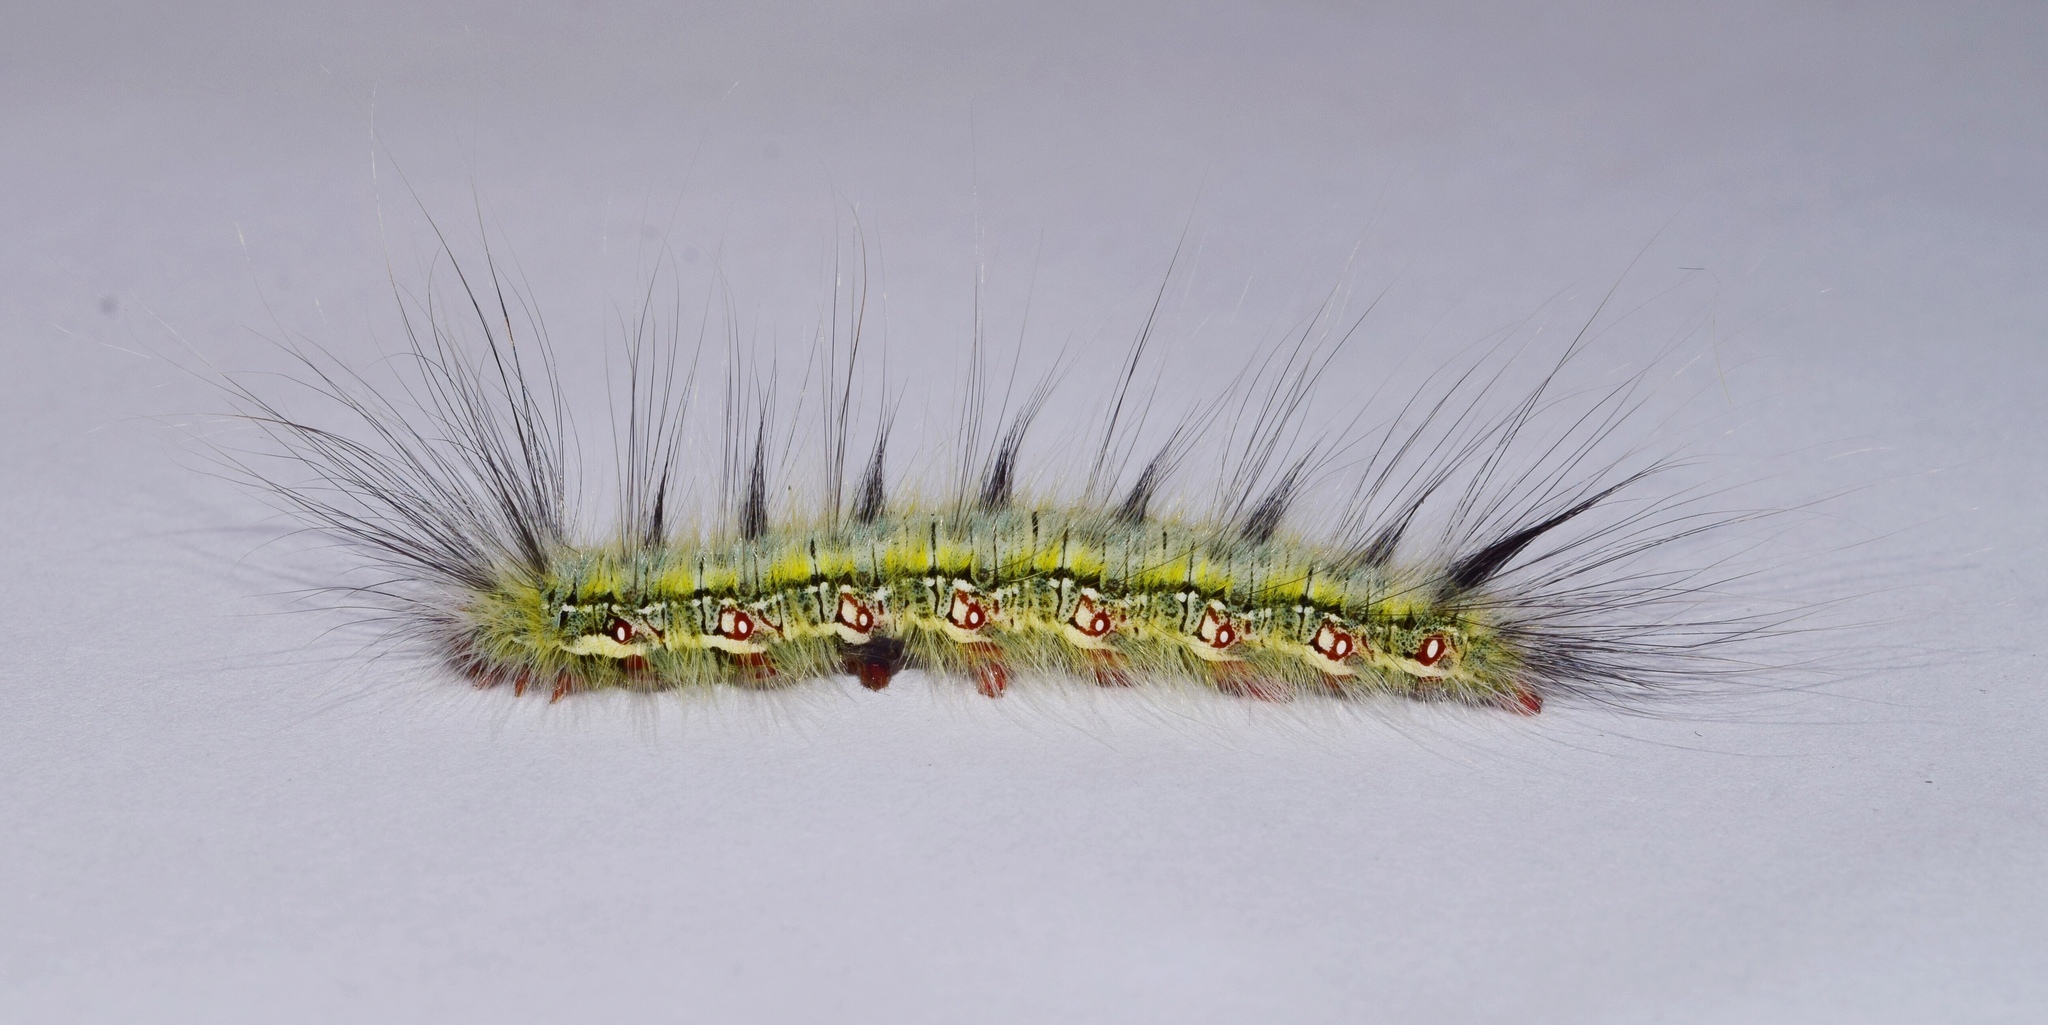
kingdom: Animalia
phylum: Arthropoda
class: Insecta
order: Lepidoptera
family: Eupterotidae
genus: Poloma
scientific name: Poloma angulata
